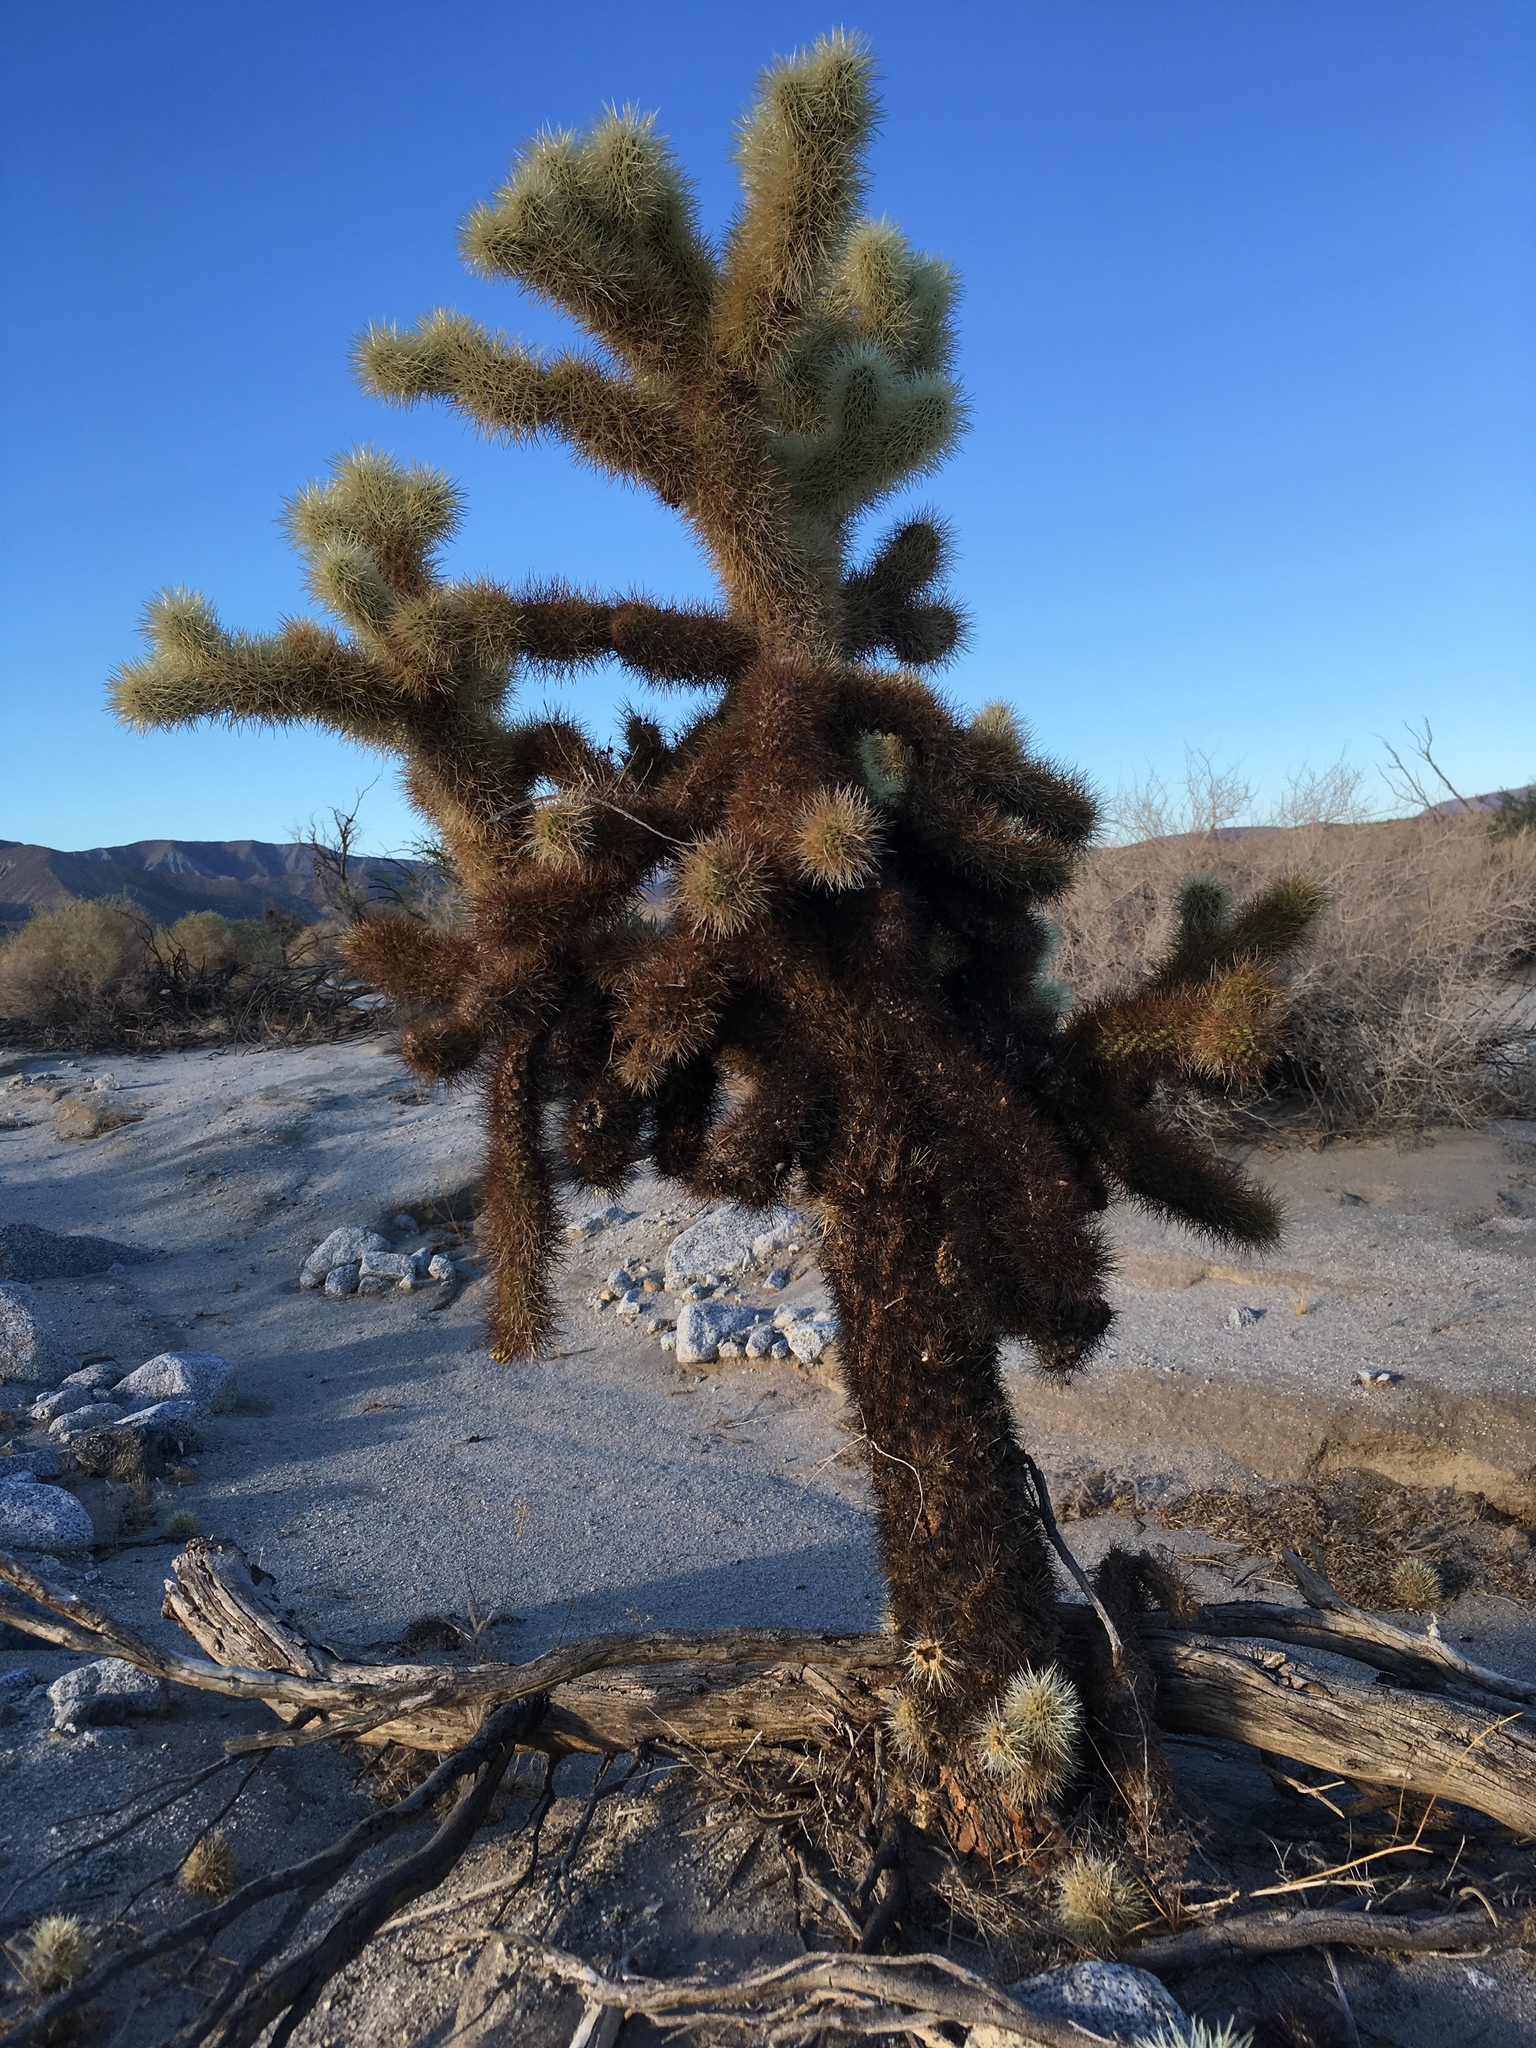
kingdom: Plantae
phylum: Tracheophyta
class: Magnoliopsida
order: Caryophyllales
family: Cactaceae
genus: Cylindropuntia
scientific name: Cylindropuntia fosbergii
